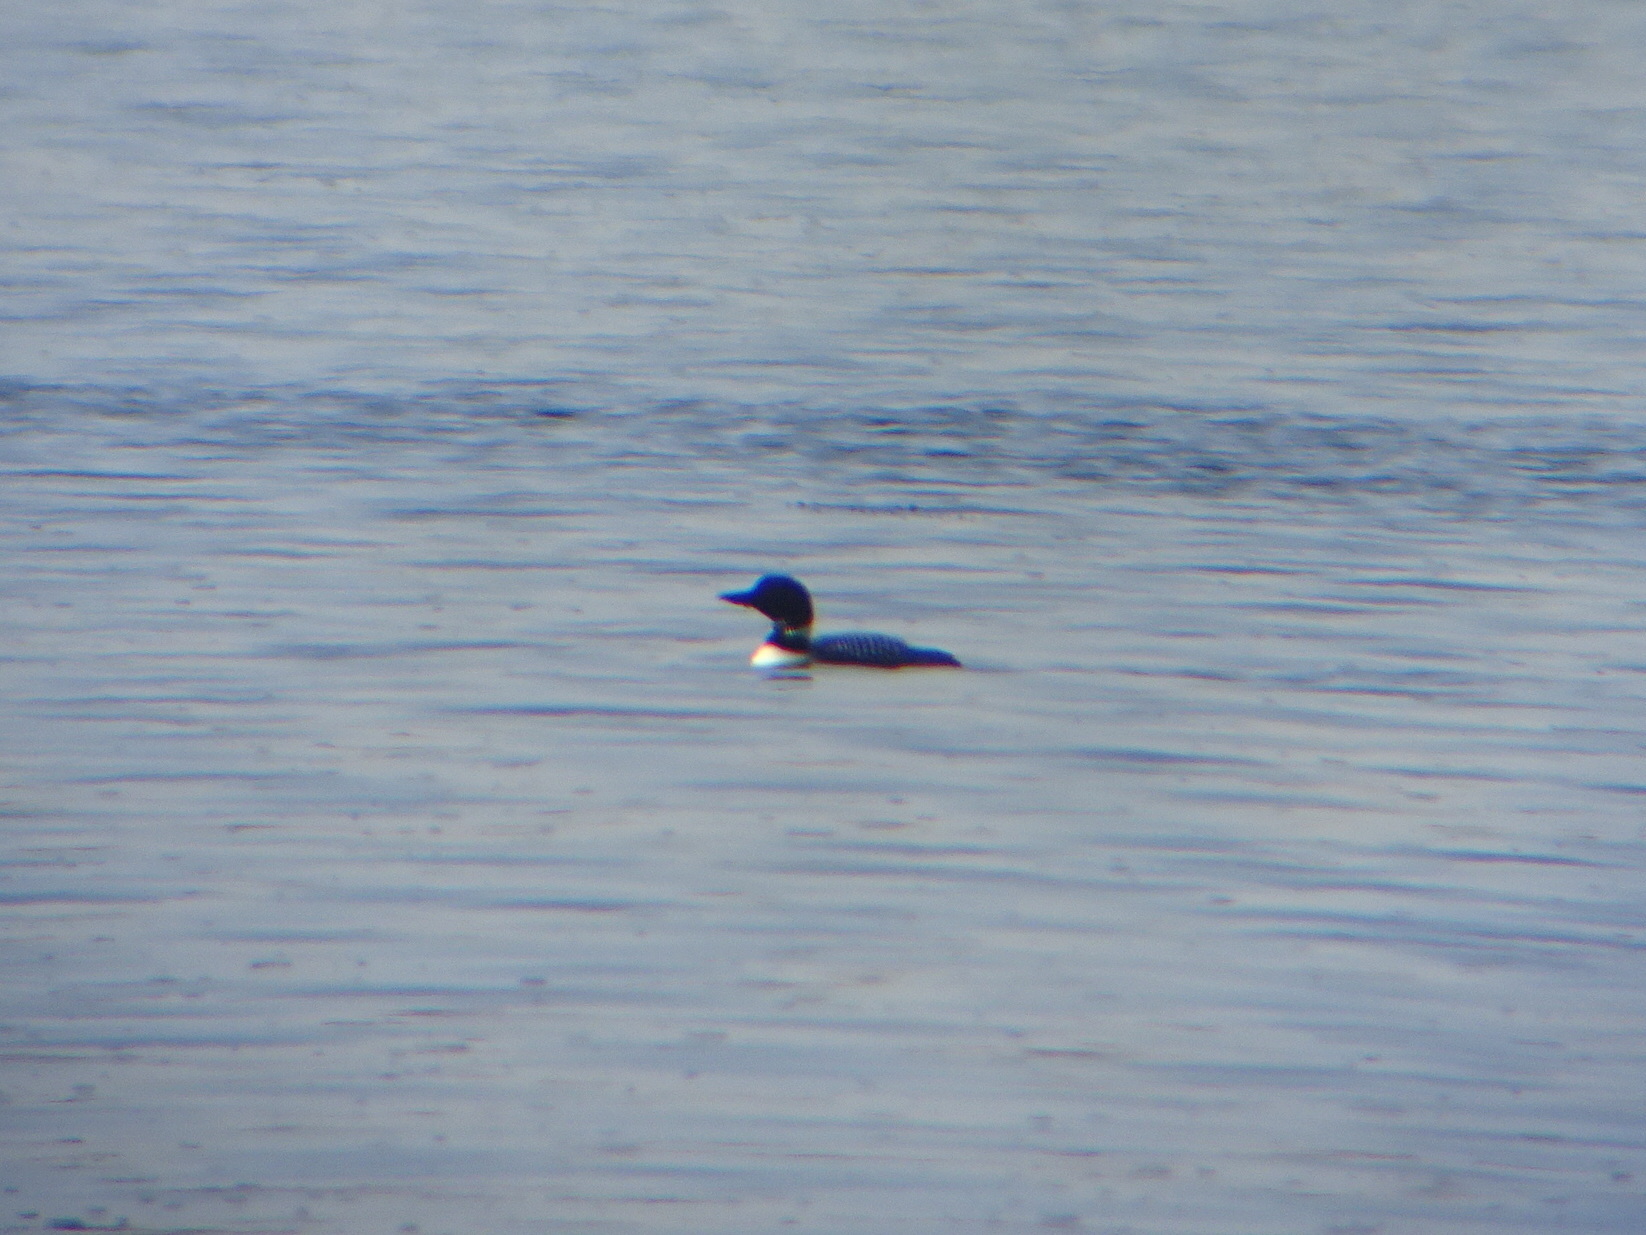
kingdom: Animalia
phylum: Chordata
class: Aves
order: Gaviiformes
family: Gaviidae
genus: Gavia
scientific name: Gavia immer
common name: Common loon
